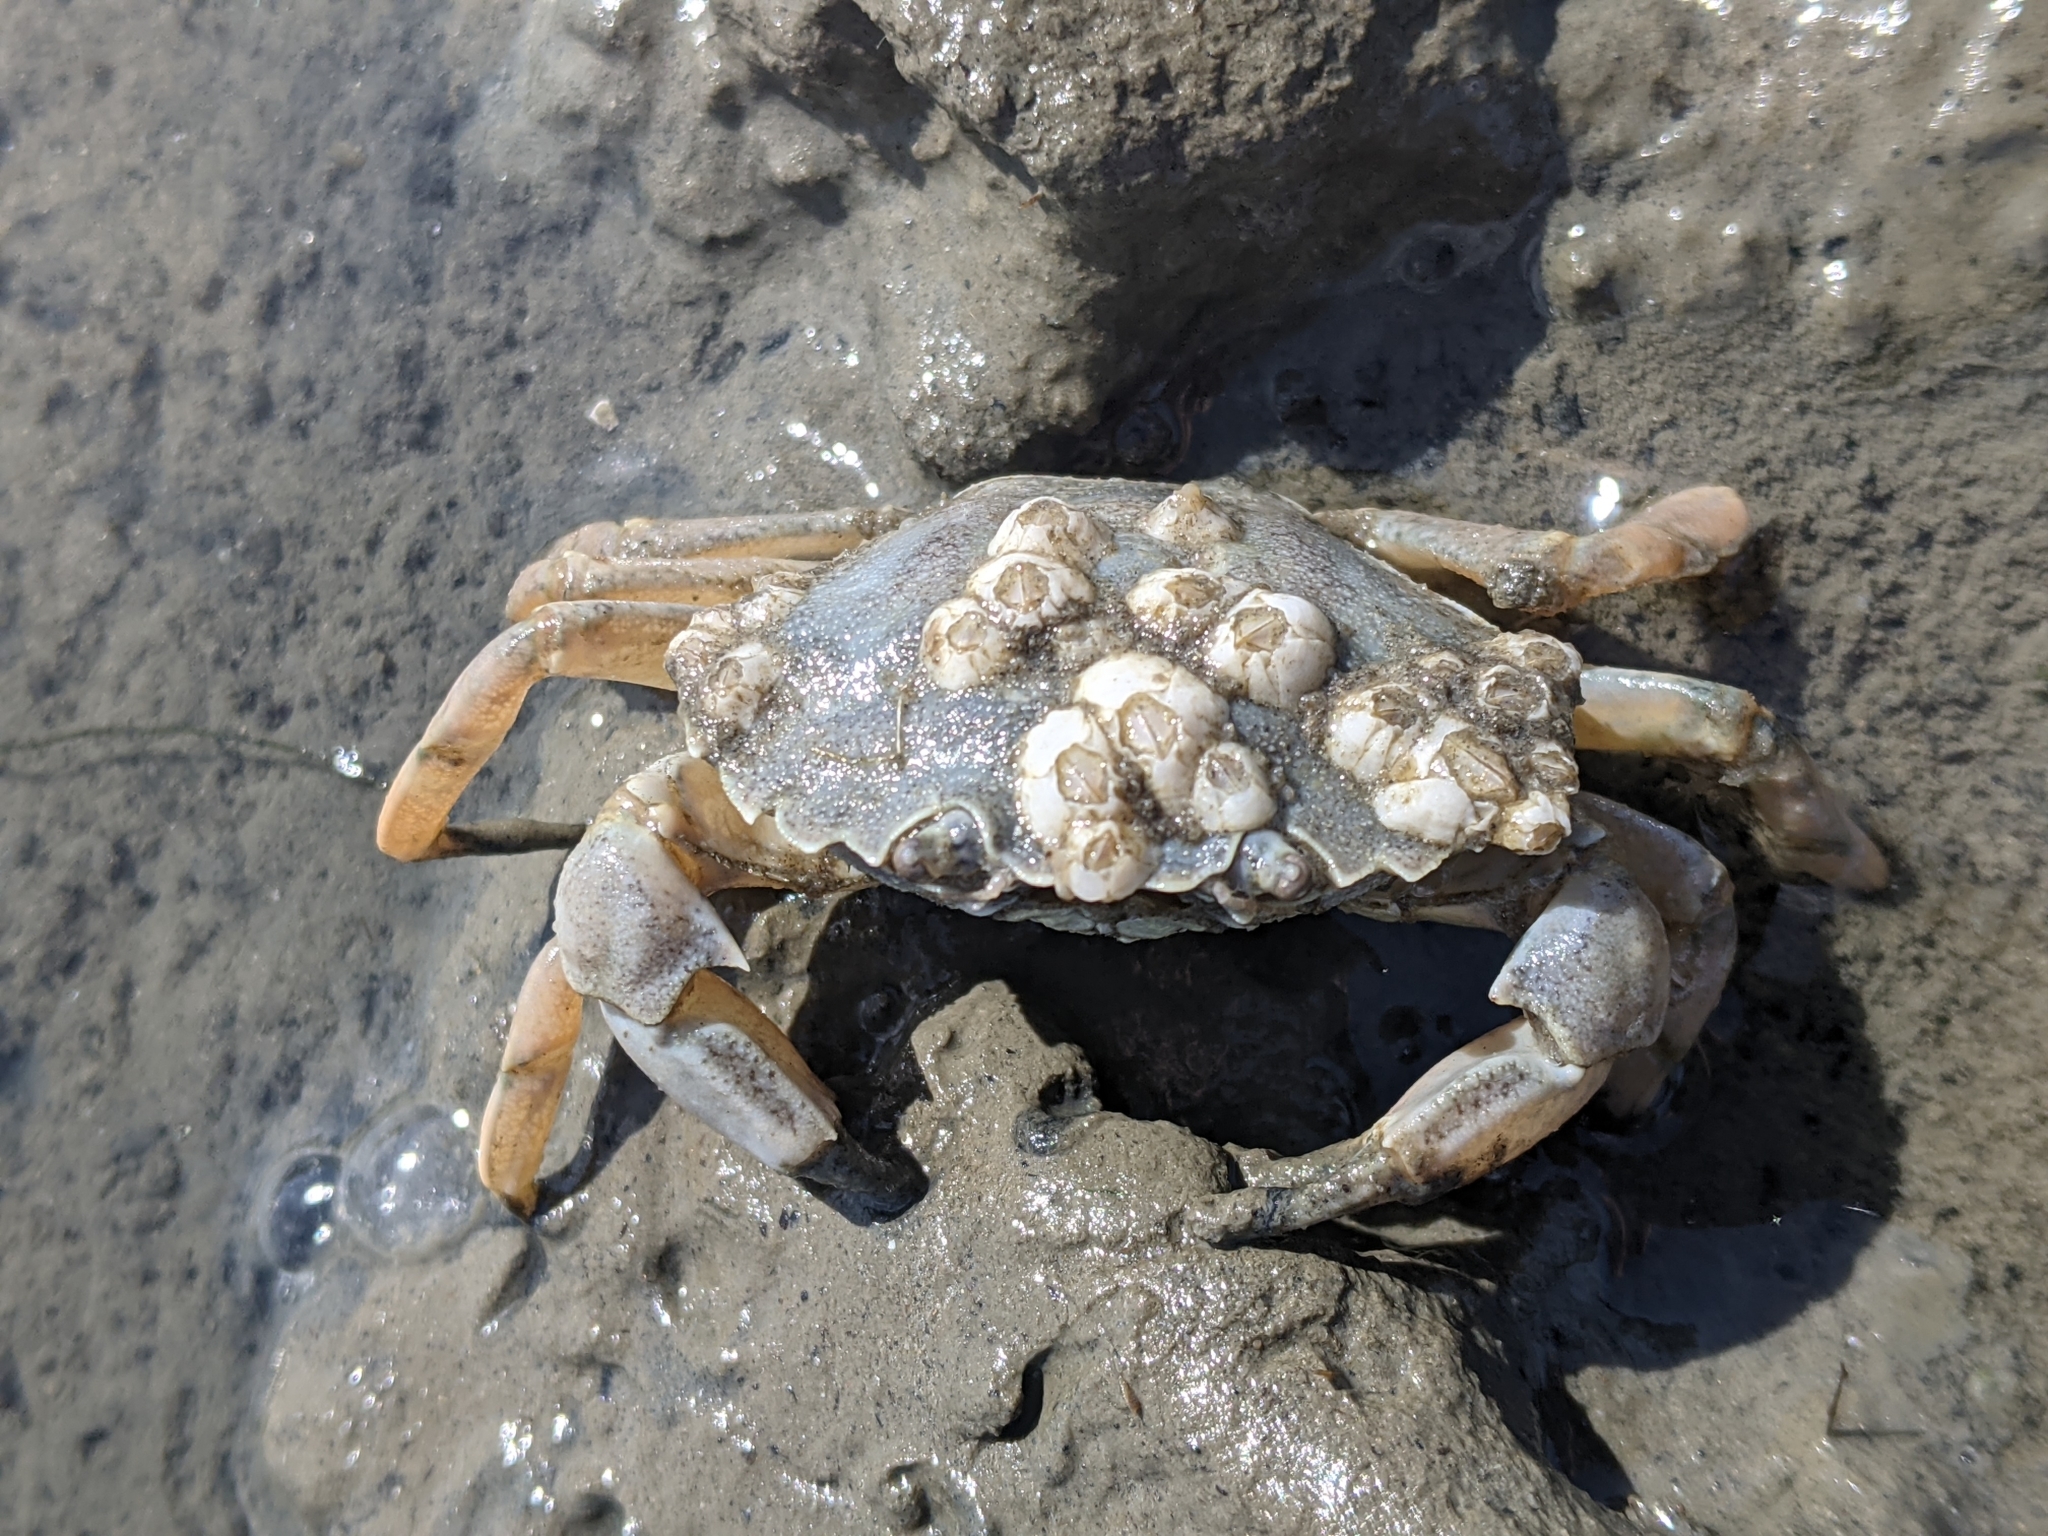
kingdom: Animalia
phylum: Arthropoda
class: Malacostraca
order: Decapoda
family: Carcinidae
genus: Carcinus
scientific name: Carcinus maenas
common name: European green crab
